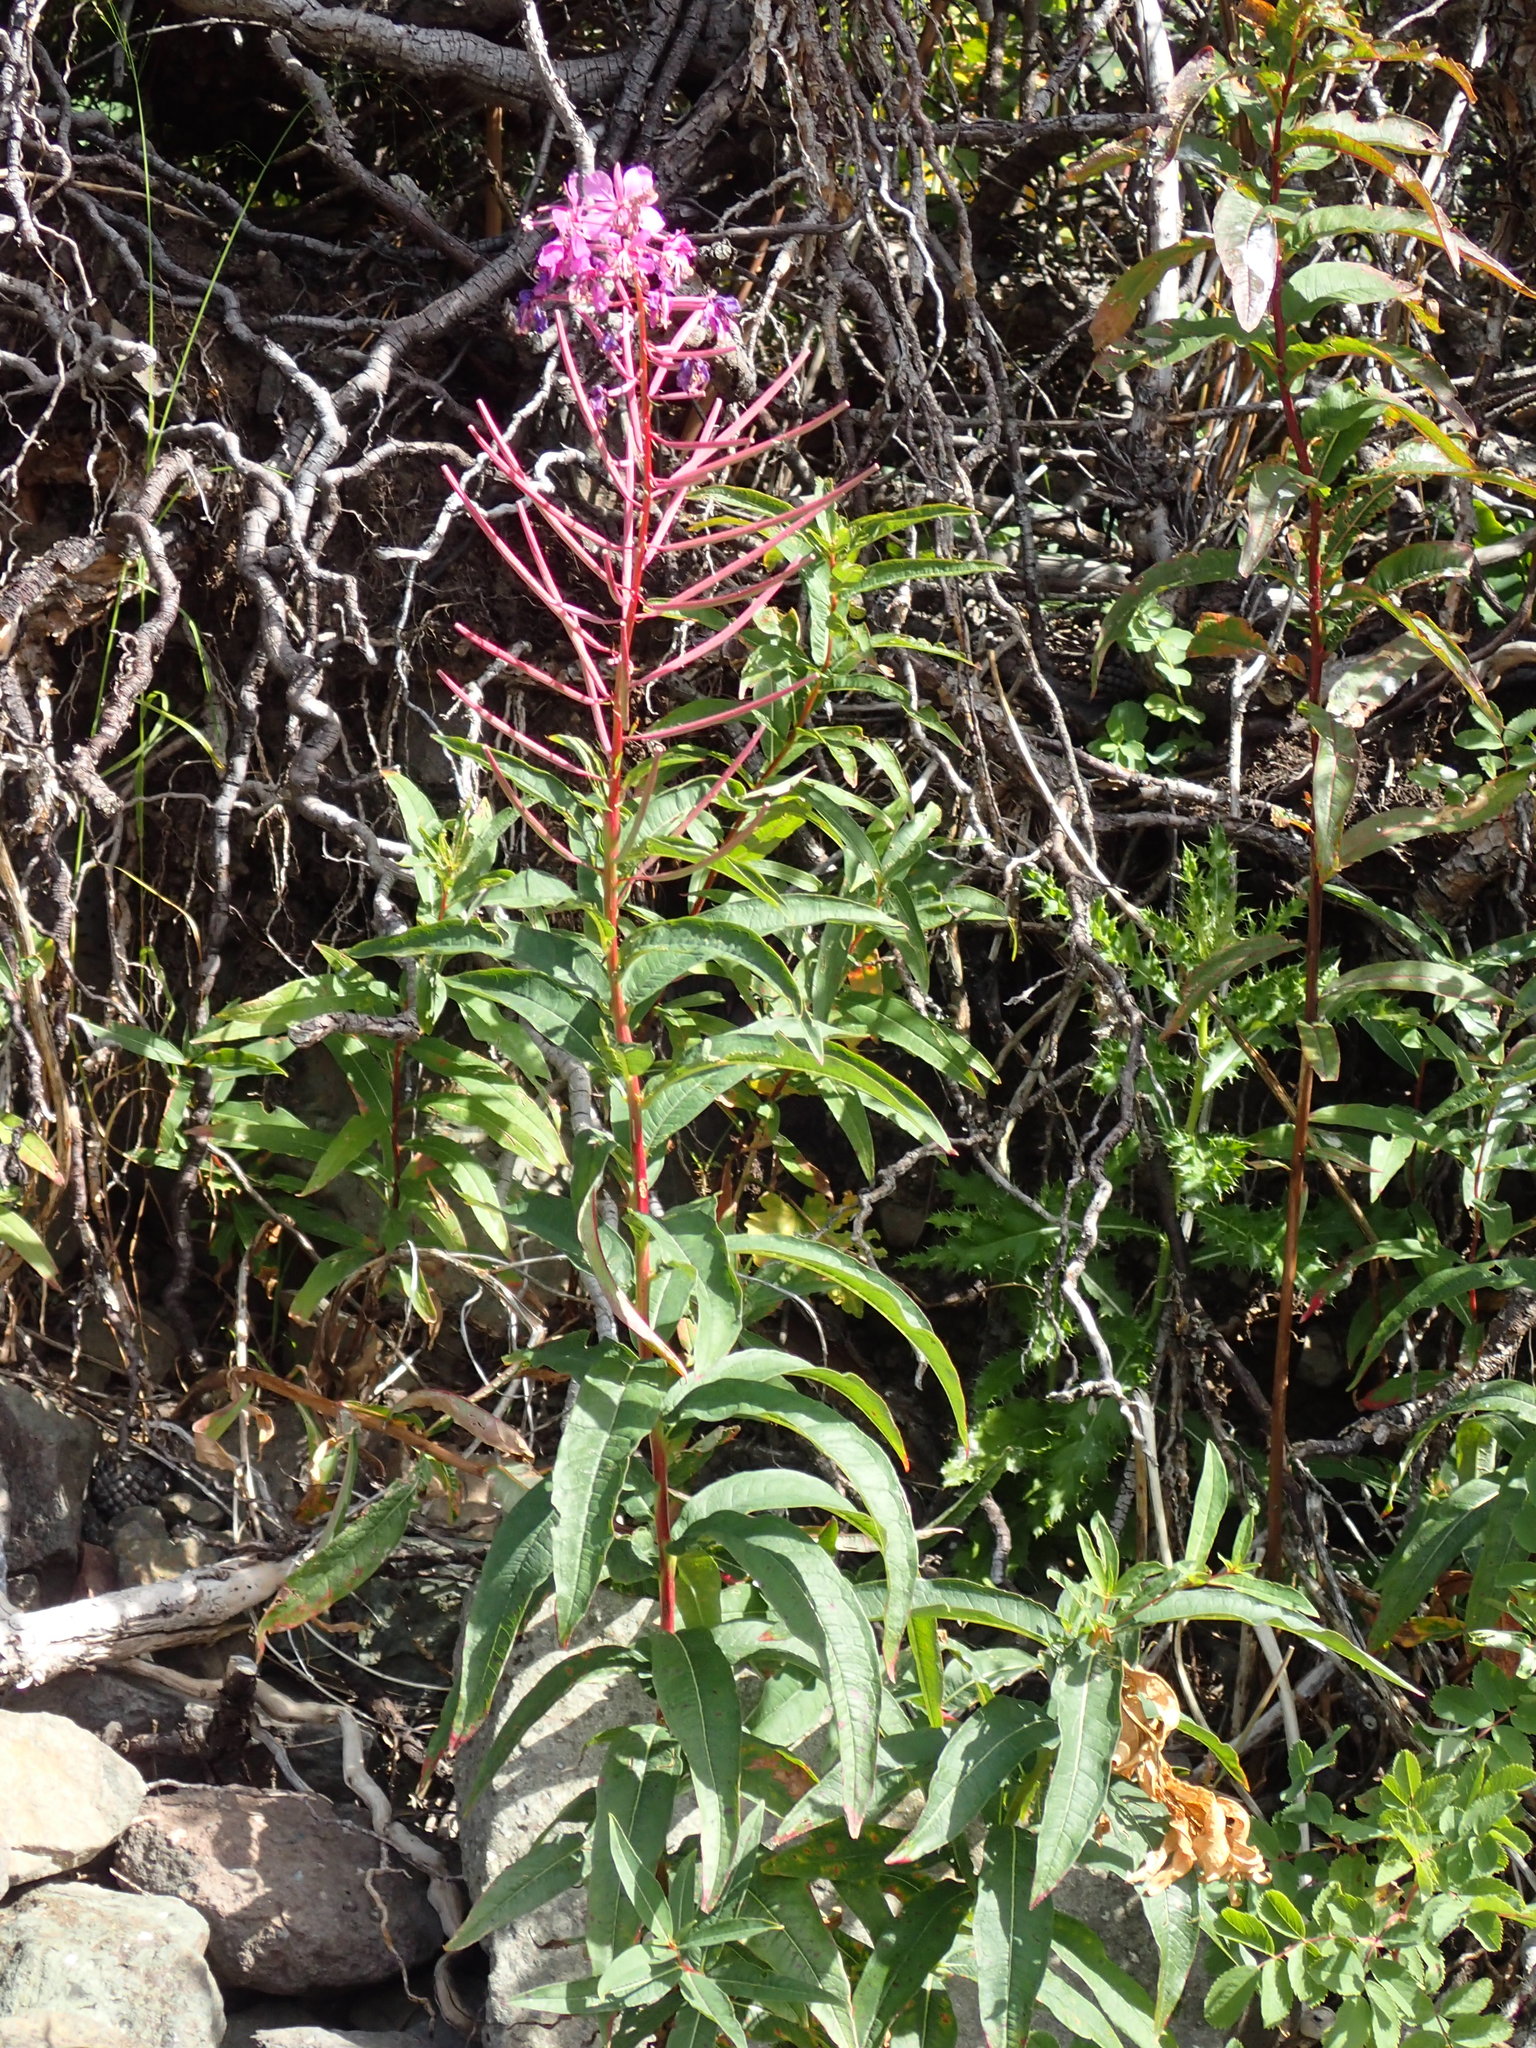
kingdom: Plantae
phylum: Tracheophyta
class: Magnoliopsida
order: Myrtales
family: Onagraceae
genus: Chamaenerion
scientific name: Chamaenerion angustifolium
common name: Fireweed
